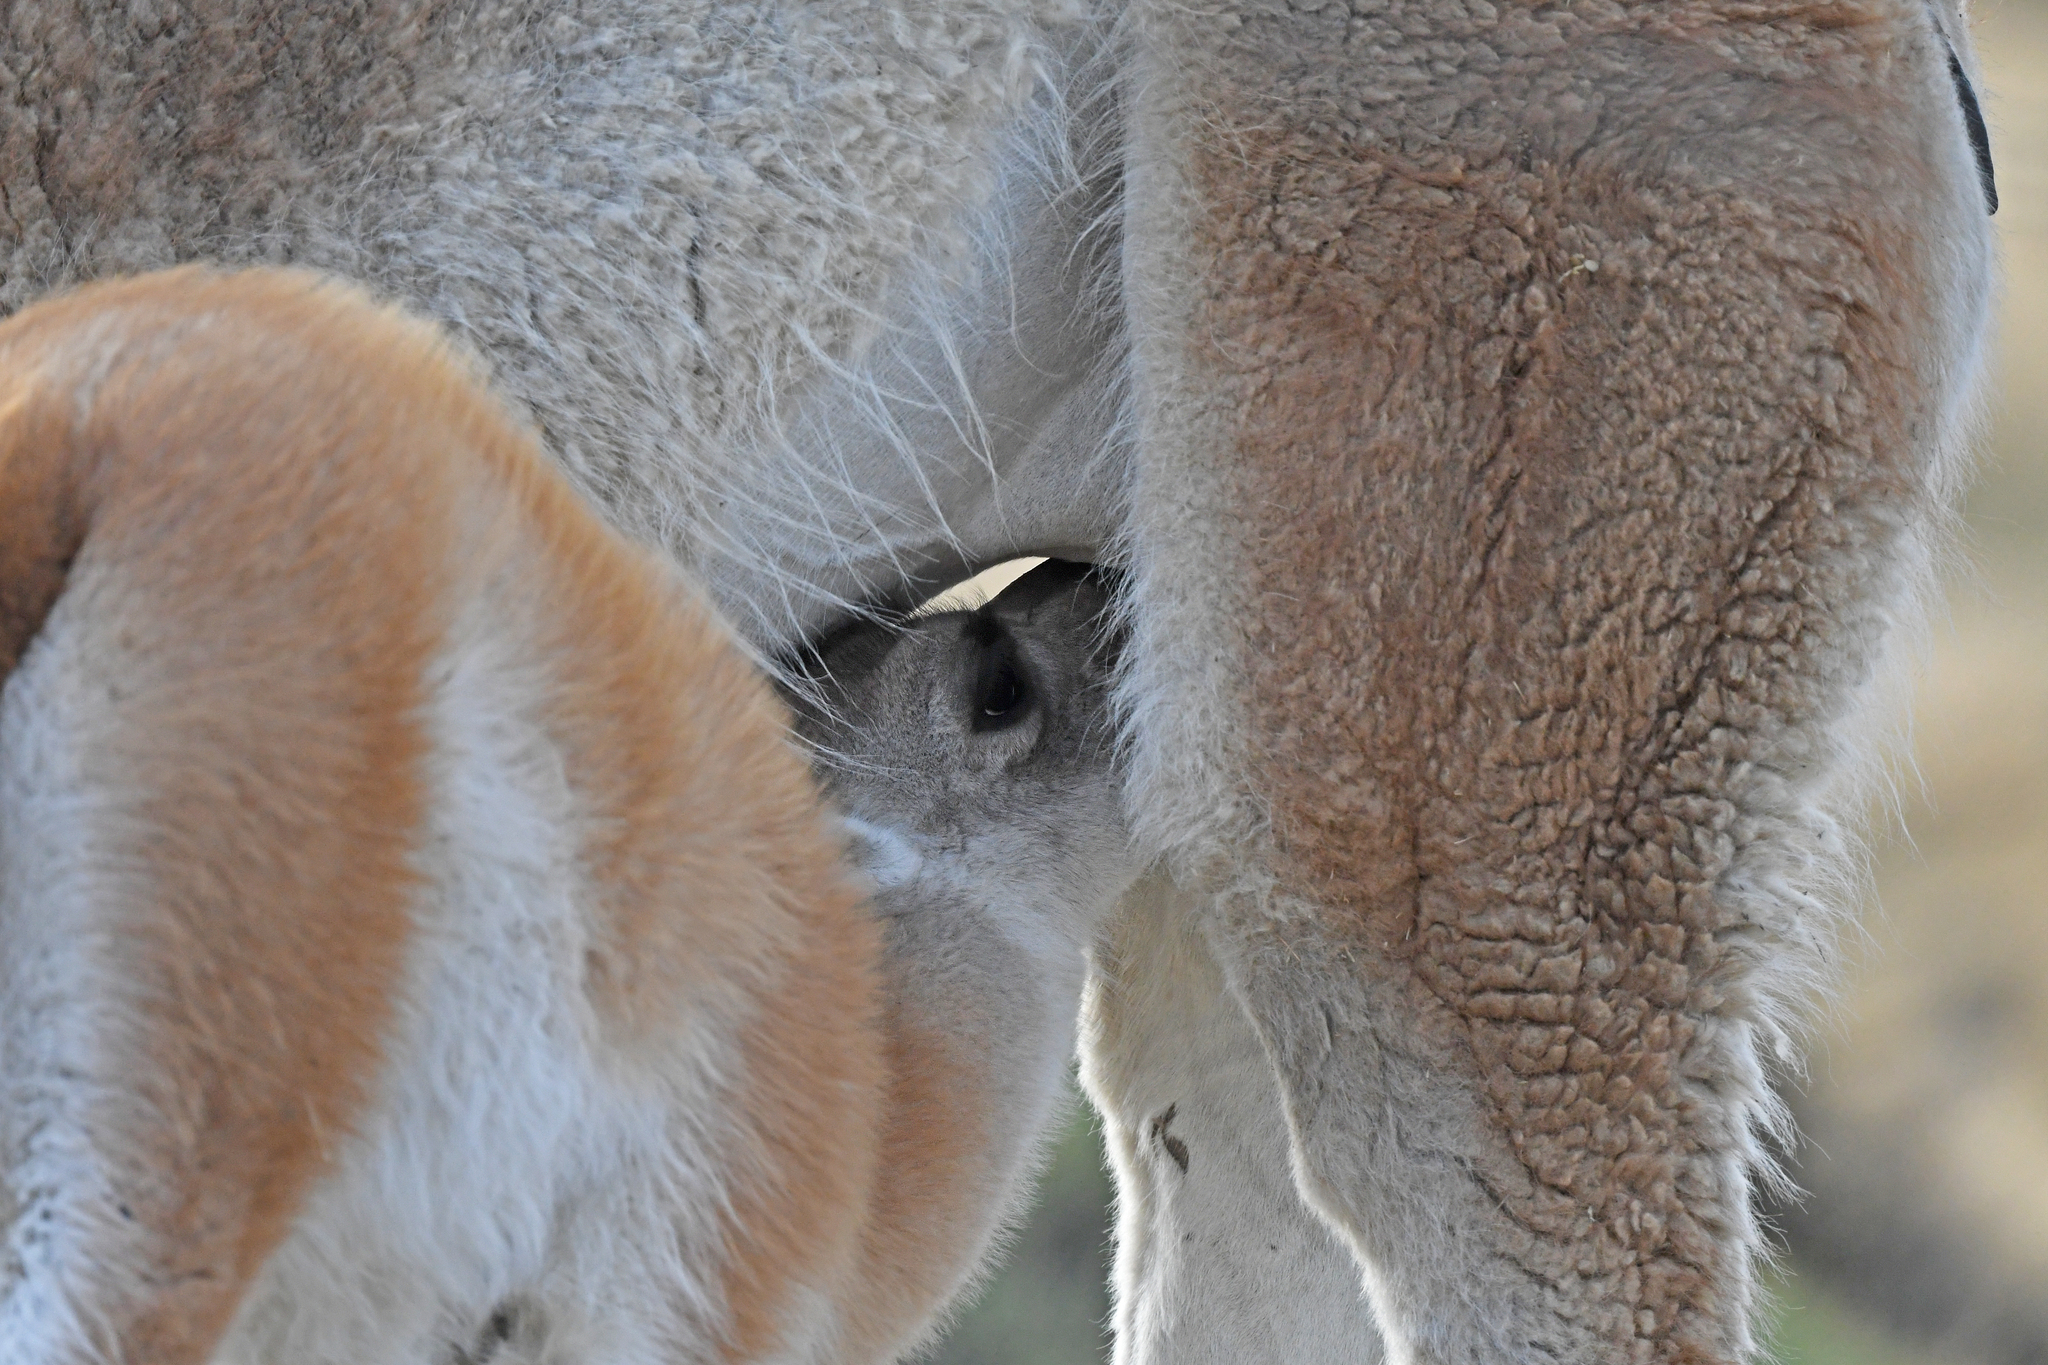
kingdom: Animalia
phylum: Chordata
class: Mammalia
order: Artiodactyla
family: Camelidae
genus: Lama
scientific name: Lama glama
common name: Llama
